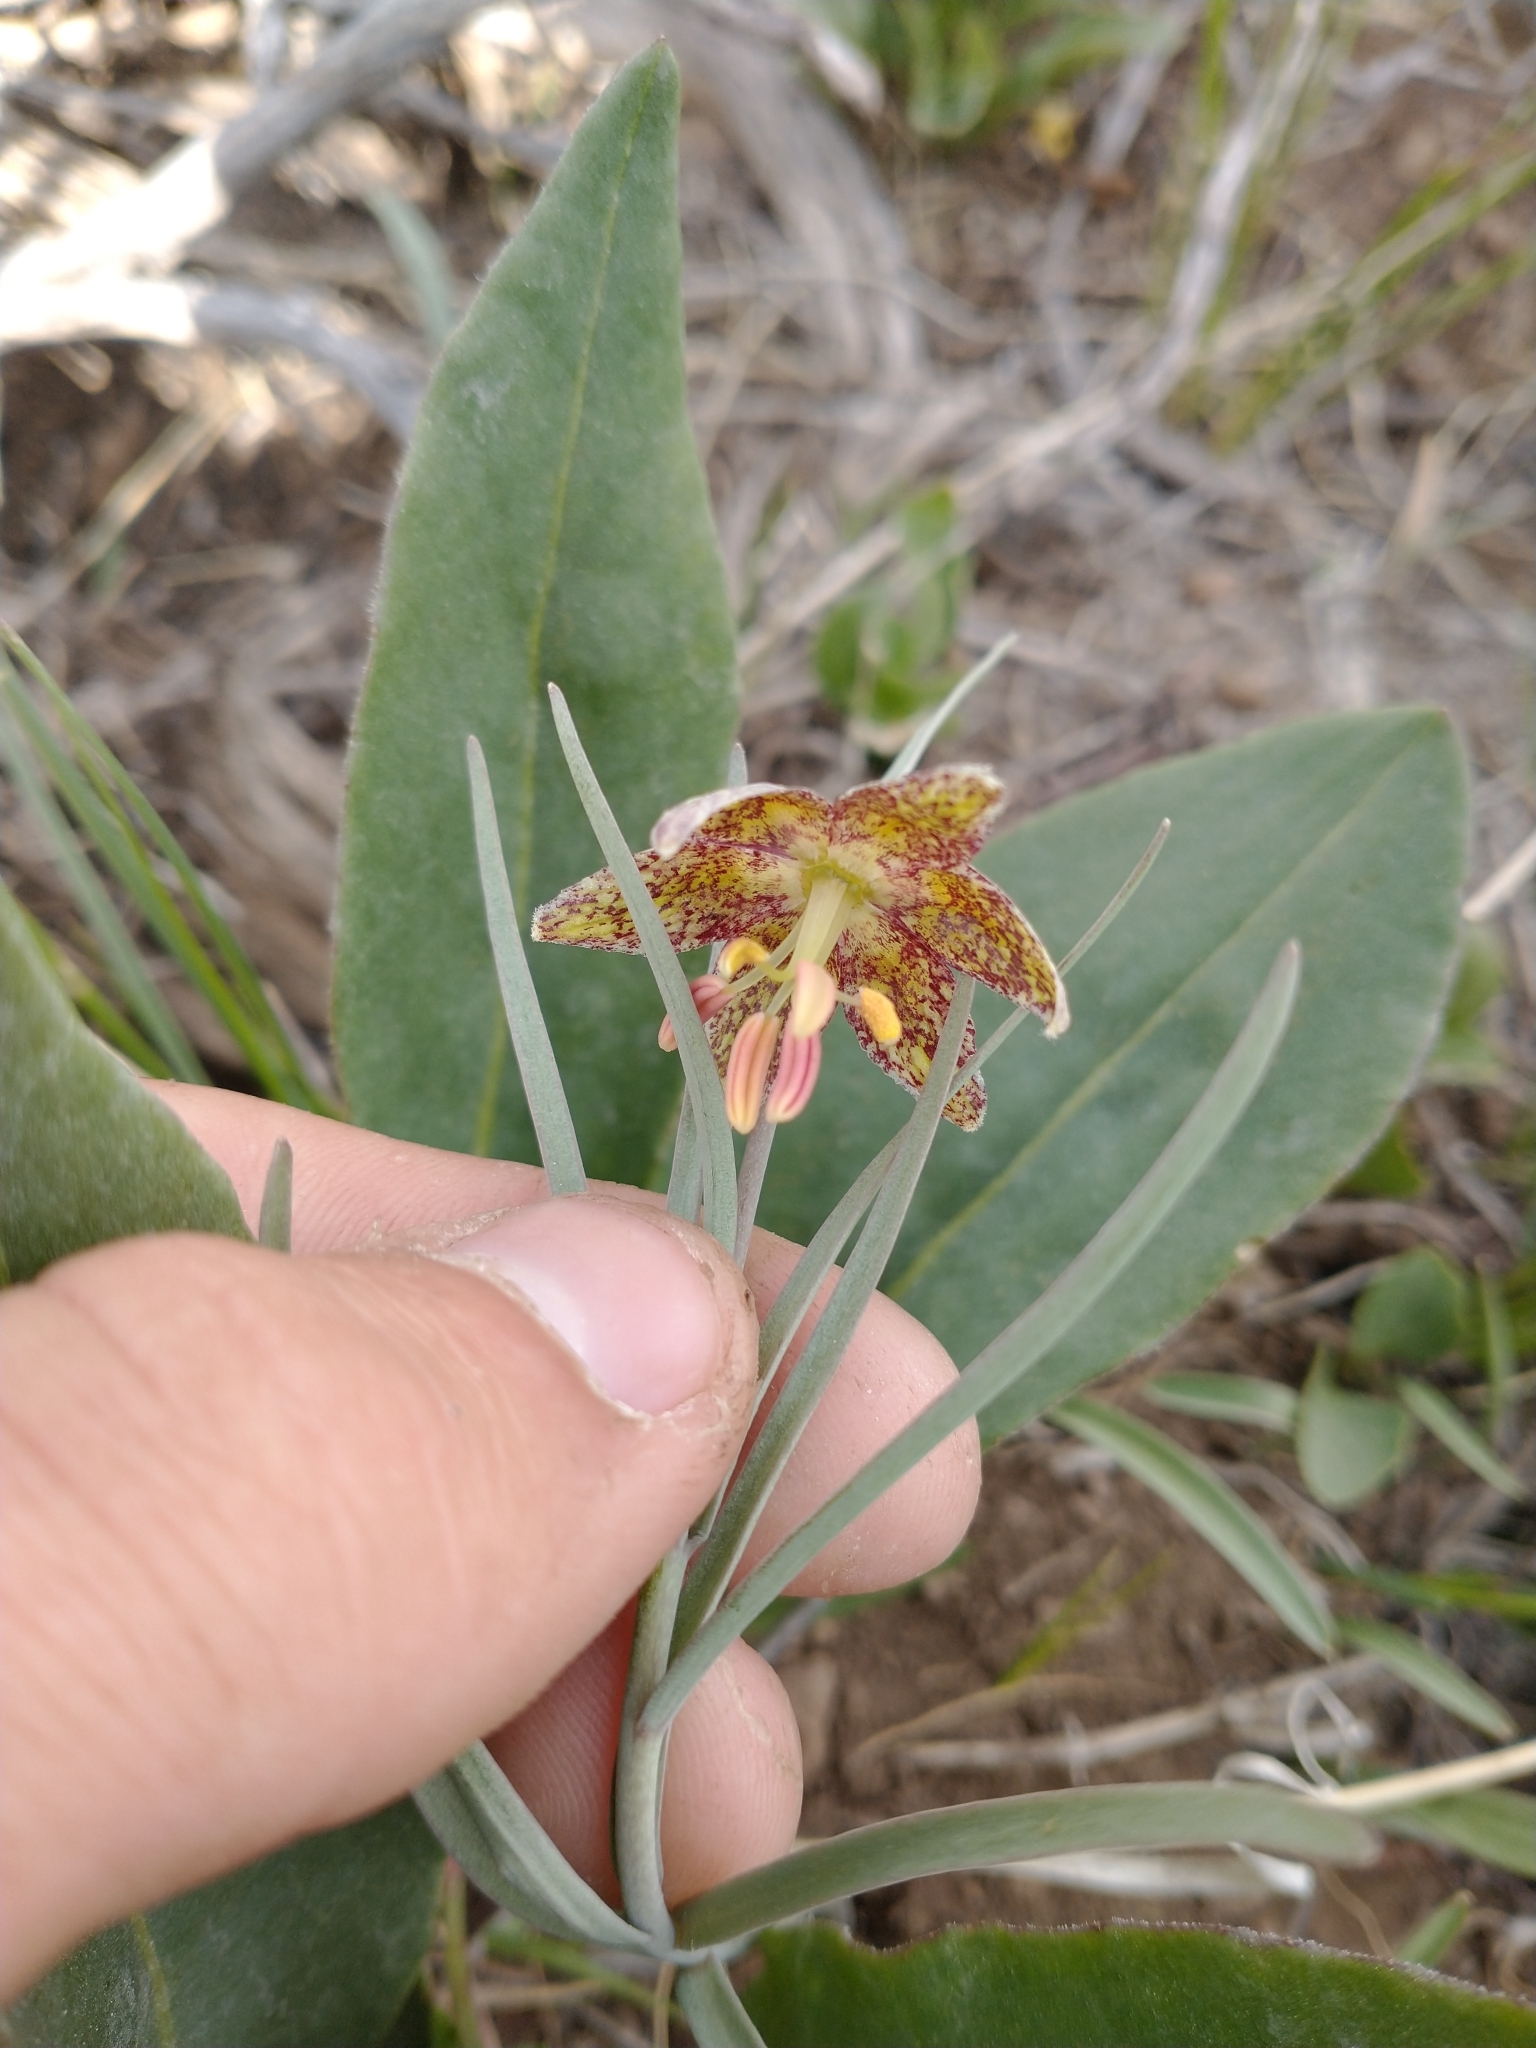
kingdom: Plantae
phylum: Tracheophyta
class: Liliopsida
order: Liliales
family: Liliaceae
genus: Fritillaria
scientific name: Fritillaria atropurpurea
